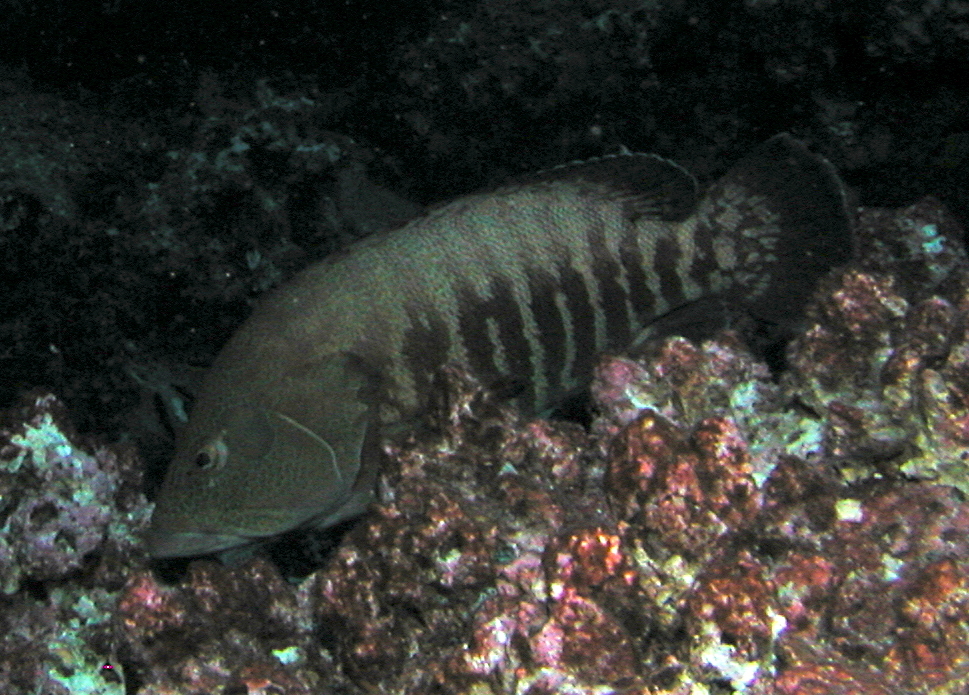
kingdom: Animalia
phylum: Chordata
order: Perciformes
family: Serranidae
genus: Cephalopholis
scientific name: Cephalopholis panamensis
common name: Pacific graysby
